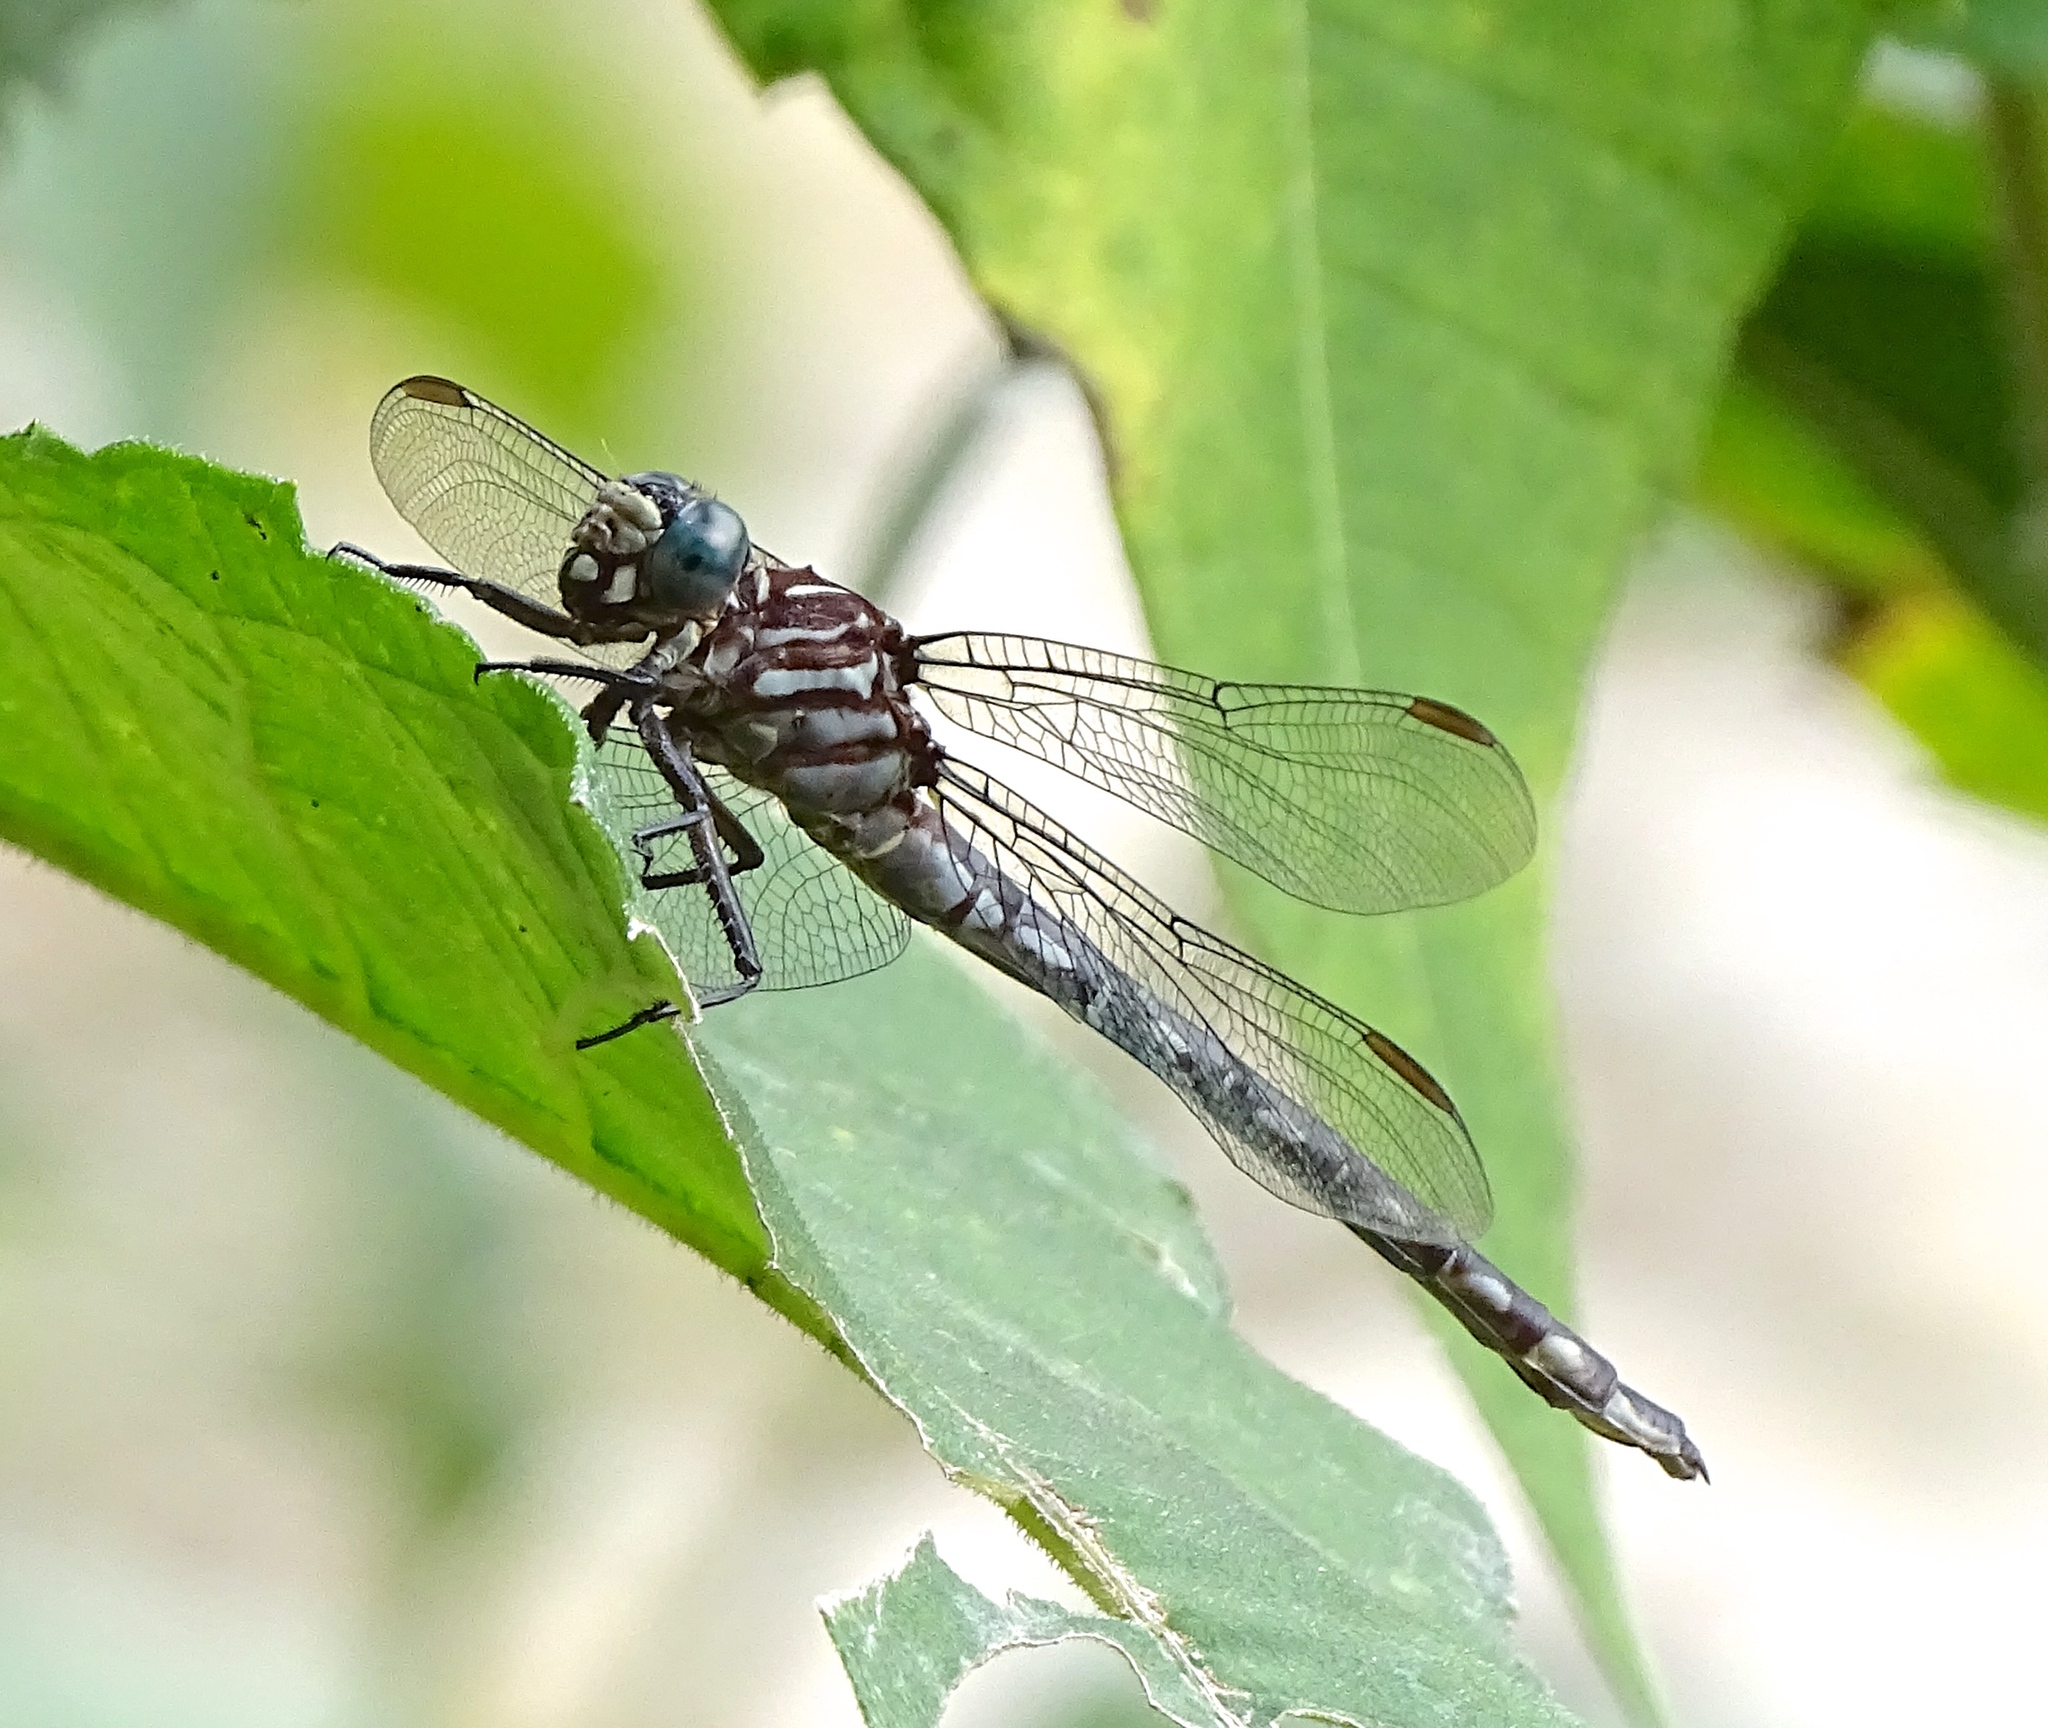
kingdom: Animalia
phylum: Arthropoda
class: Insecta
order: Odonata
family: Gomphidae
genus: Stylurus
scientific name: Stylurus notatus
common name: Elusive clubtail
